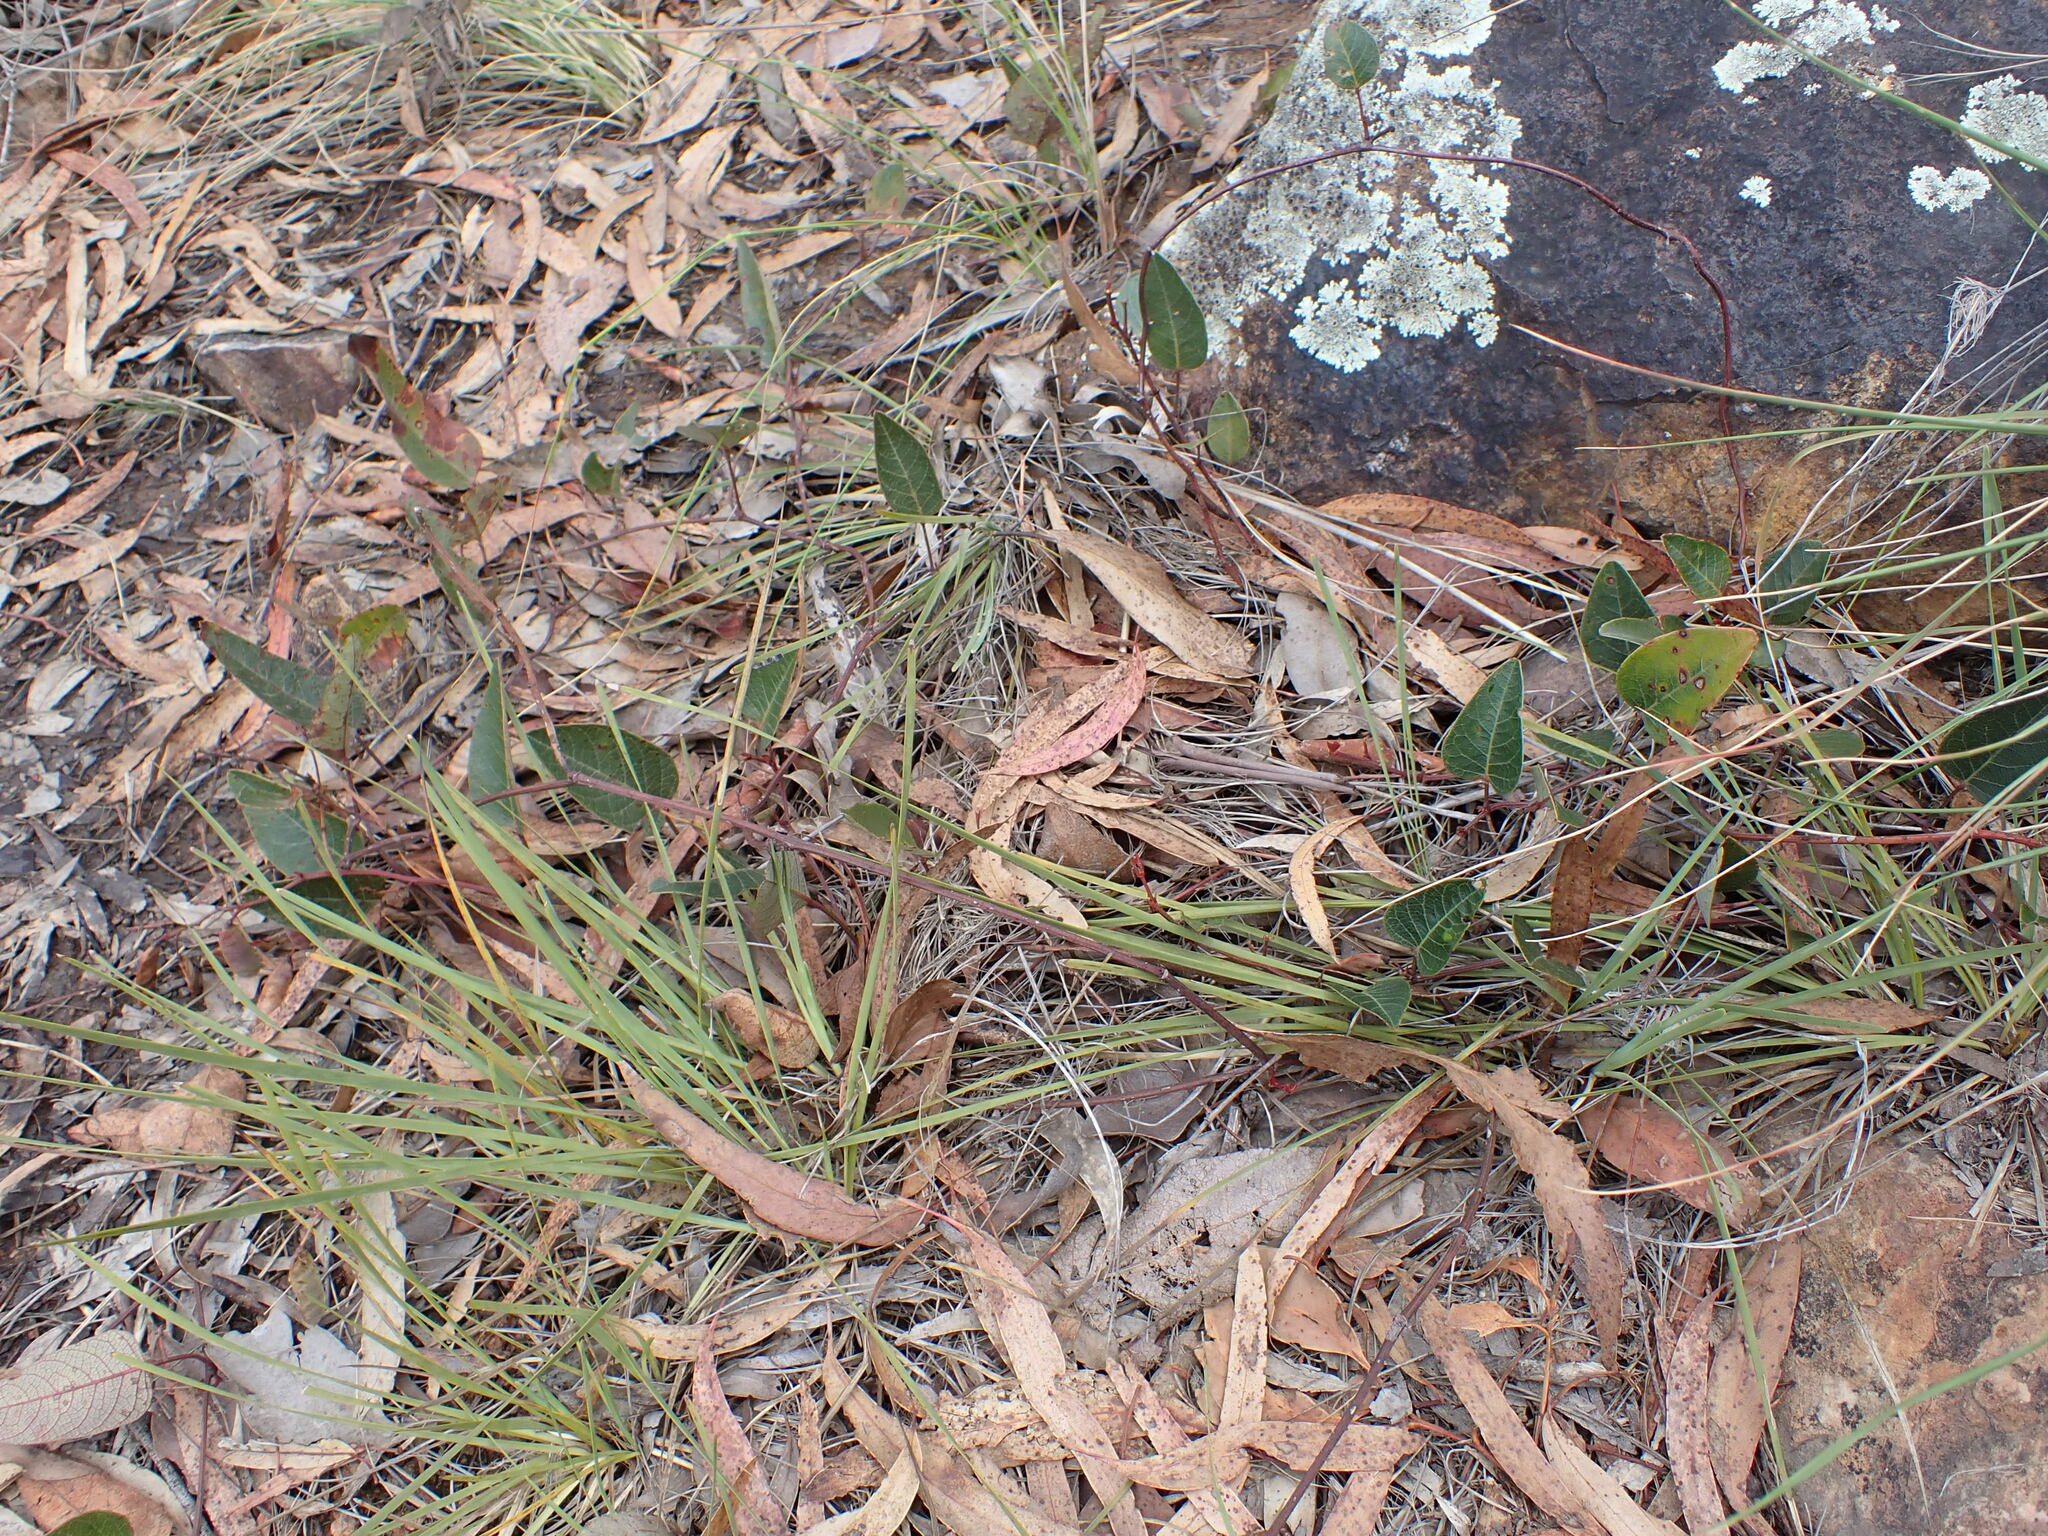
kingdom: Plantae
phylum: Tracheophyta
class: Magnoliopsida
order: Fabales
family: Fabaceae
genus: Hardenbergia
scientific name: Hardenbergia violacea
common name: Coral-pea
